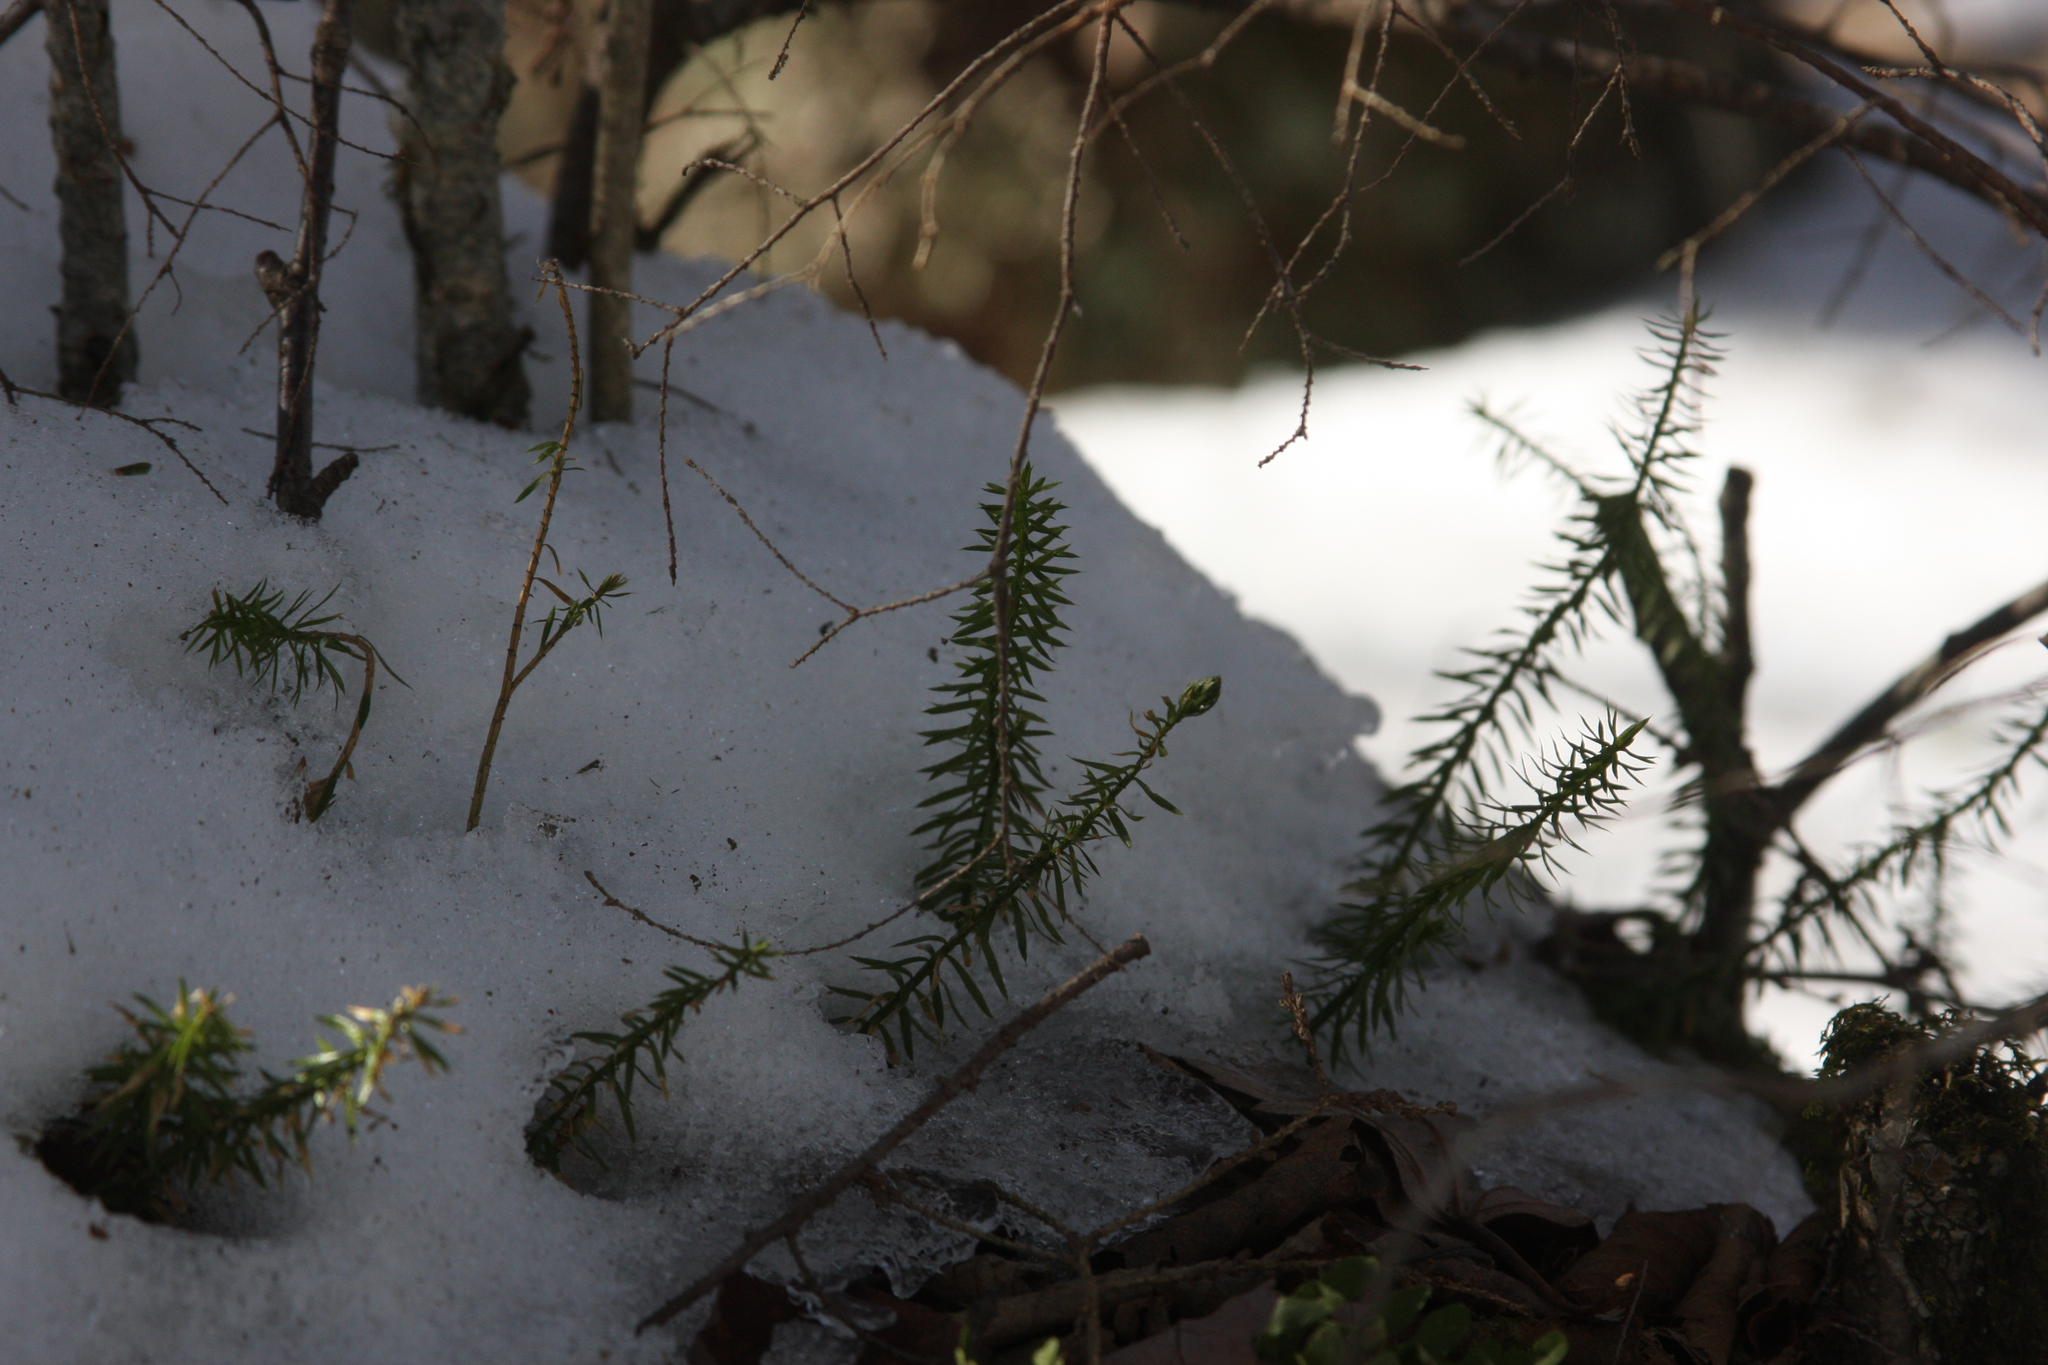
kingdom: Plantae
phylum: Tracheophyta
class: Lycopodiopsida
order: Lycopodiales
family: Lycopodiaceae
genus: Spinulum
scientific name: Spinulum annotinum
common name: Interrupted club-moss
